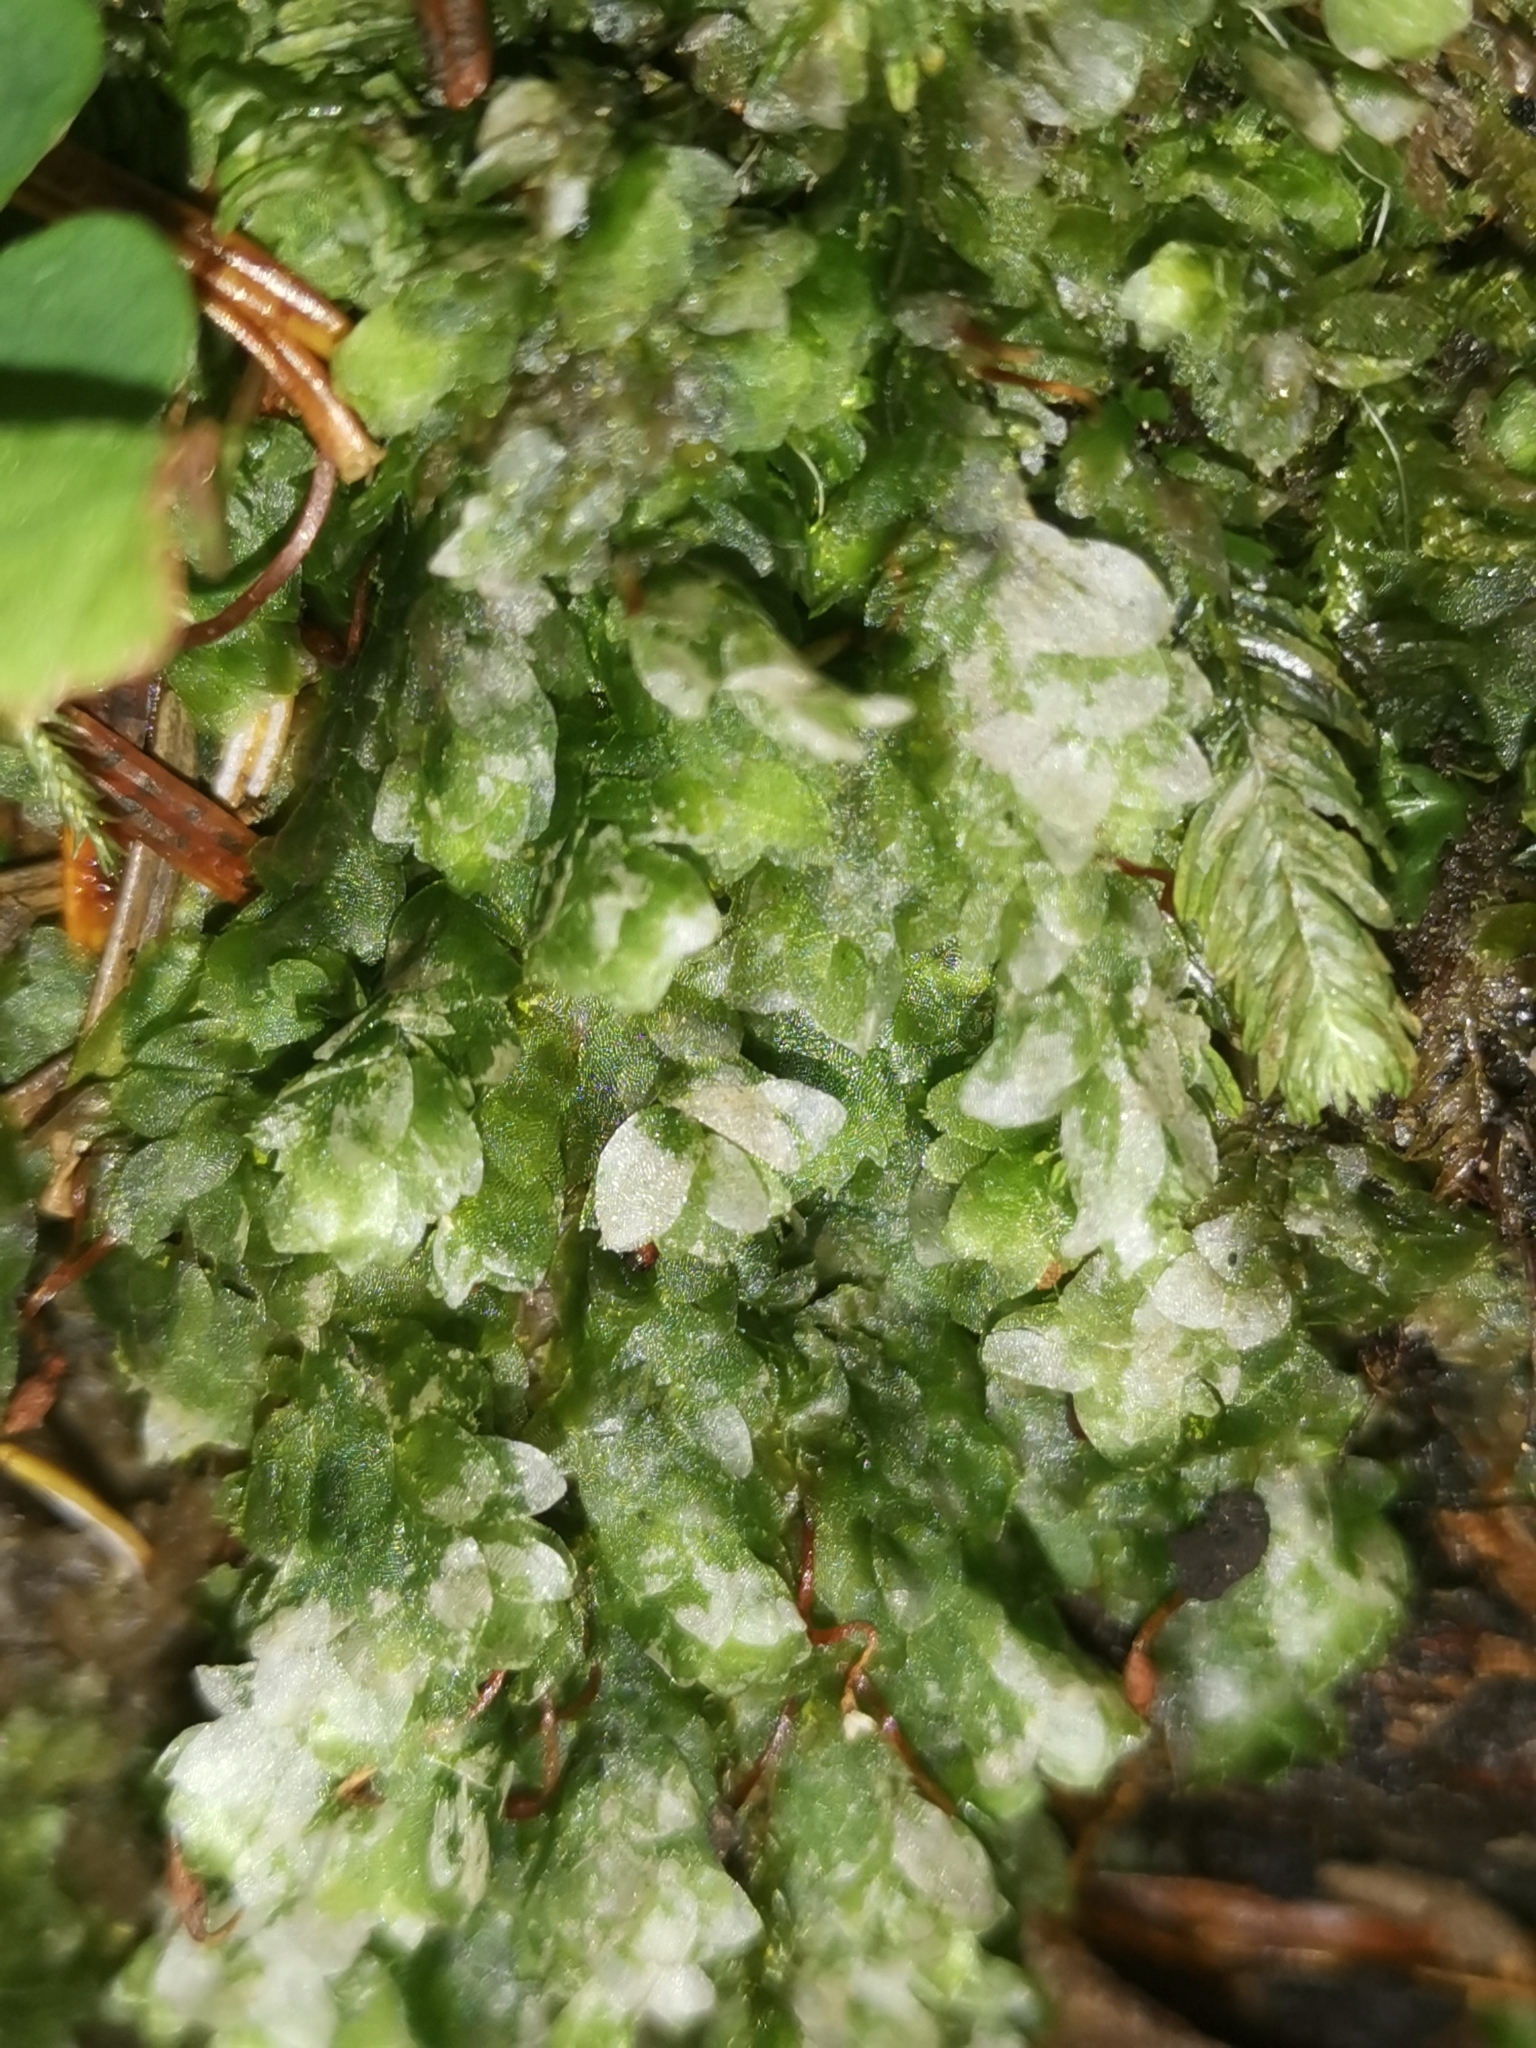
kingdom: Plantae
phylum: Bryophyta
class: Bryopsida
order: Hookeriales
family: Hookeriaceae
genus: Hookeria
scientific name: Hookeria lucens
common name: Shining hookeria
